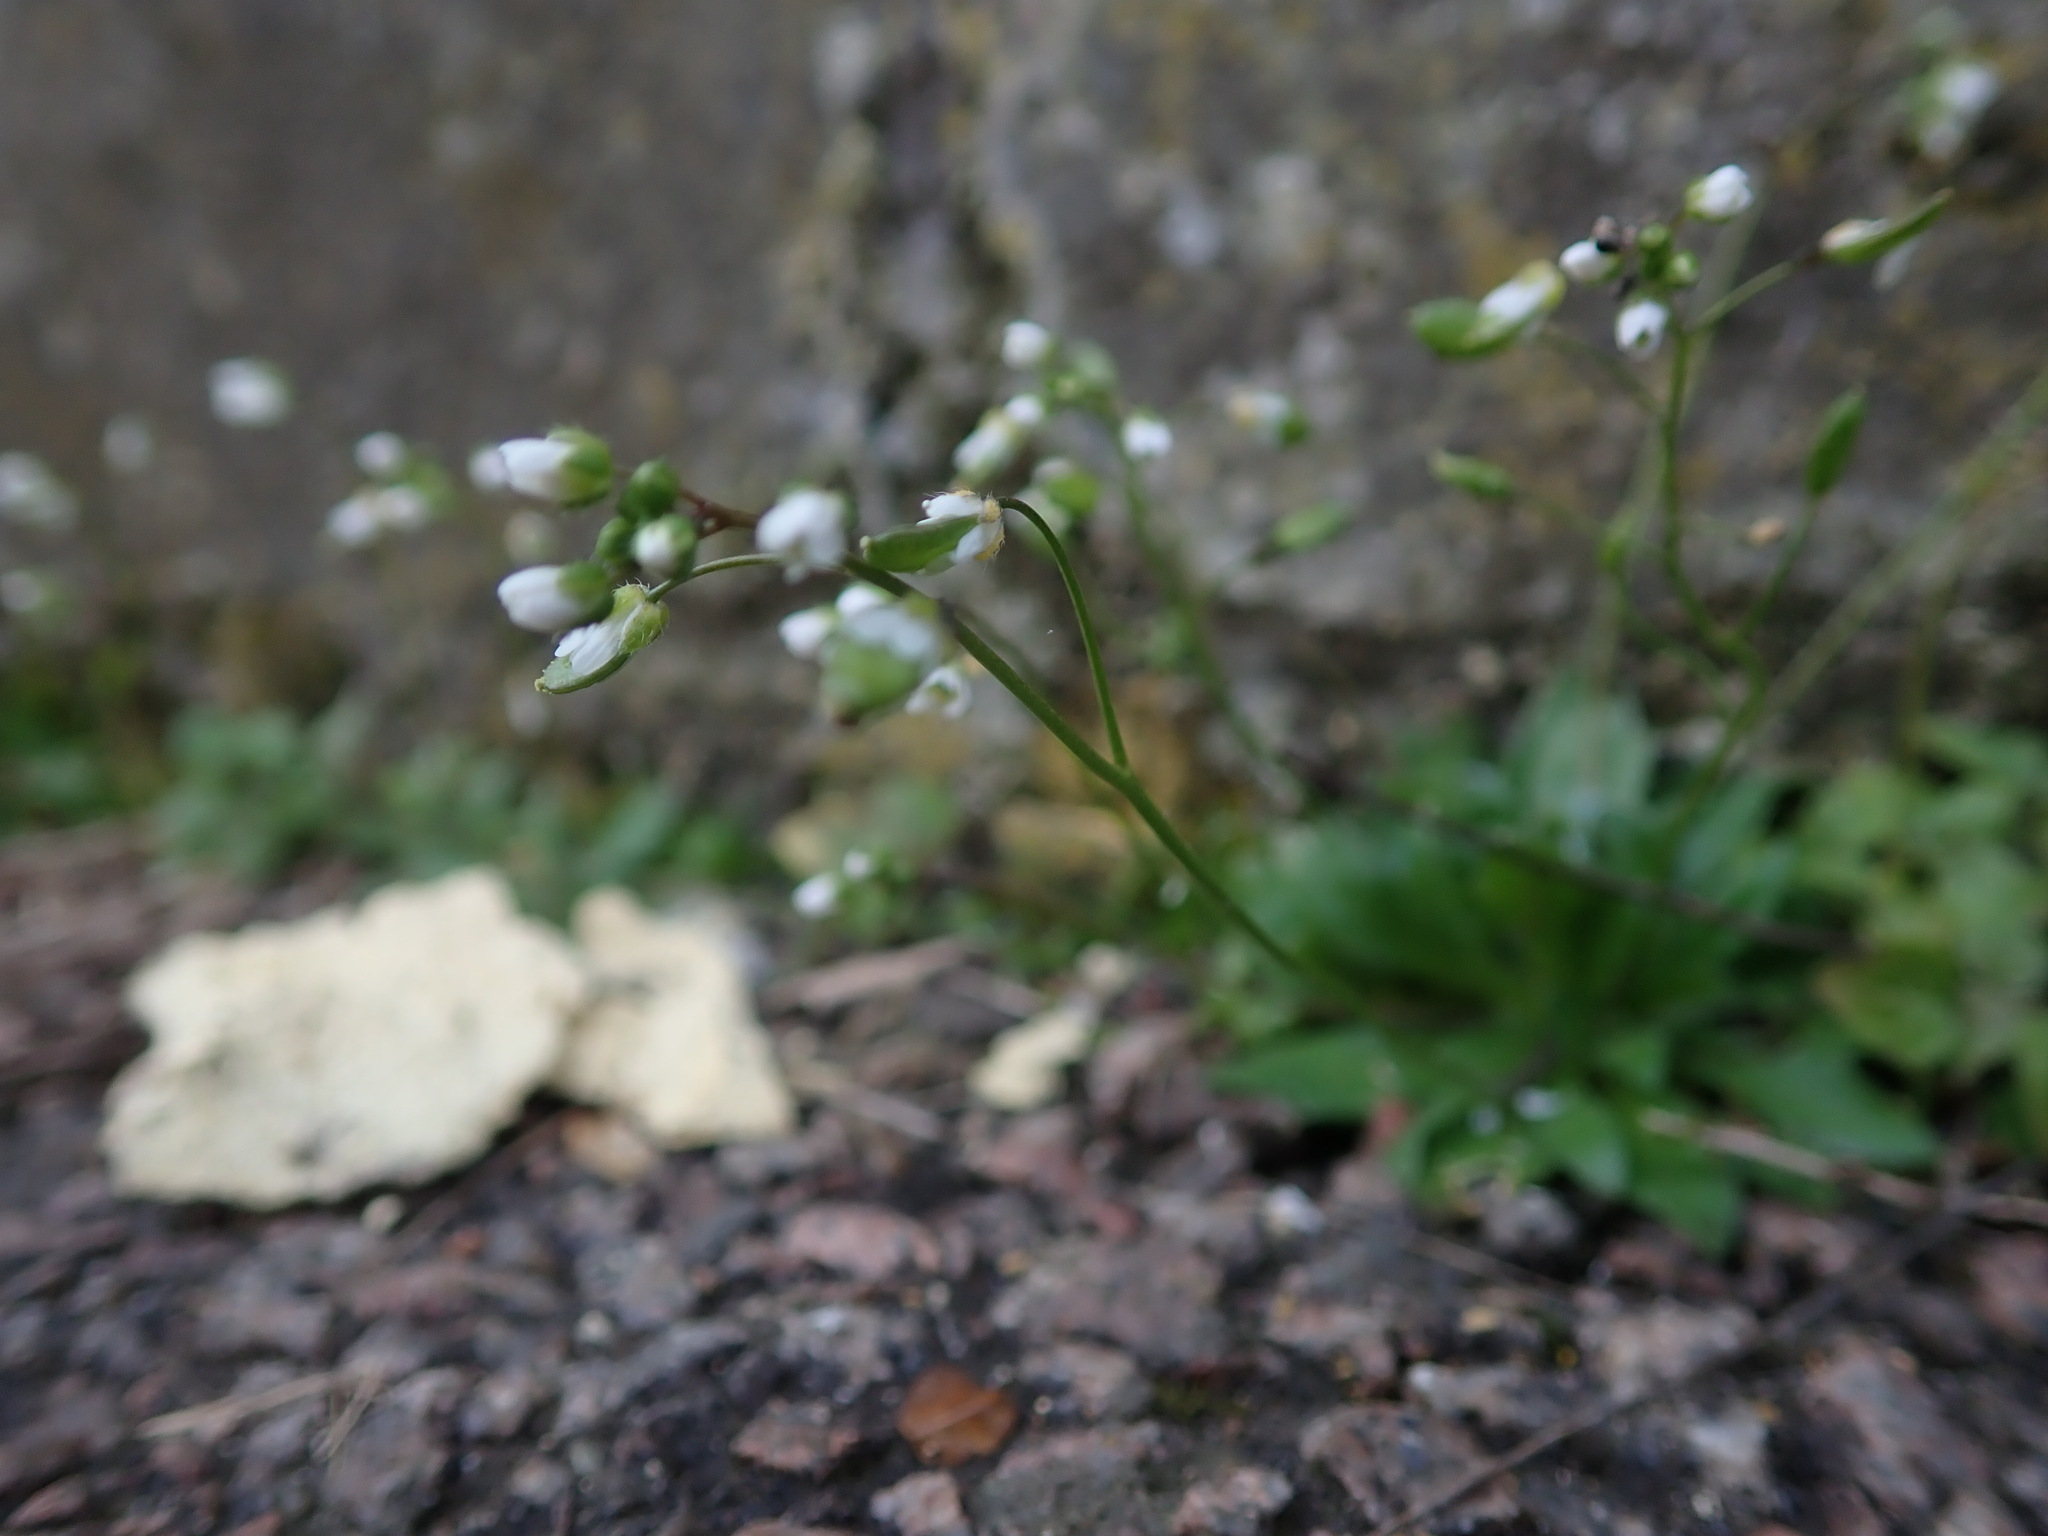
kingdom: Plantae
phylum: Tracheophyta
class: Magnoliopsida
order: Brassicales
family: Brassicaceae
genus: Draba
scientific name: Draba verna
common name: Spring draba
